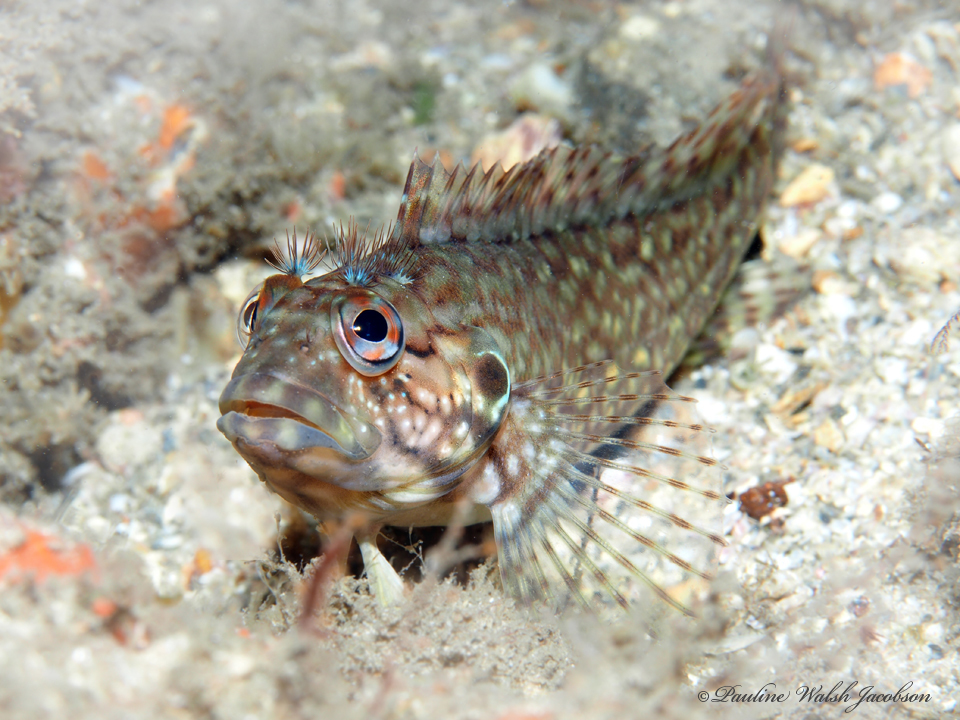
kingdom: Animalia
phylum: Chordata
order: Perciformes
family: Labrisomidae
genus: Labrisomus
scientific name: Labrisomus conditus
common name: Masquerader hairy blenny
